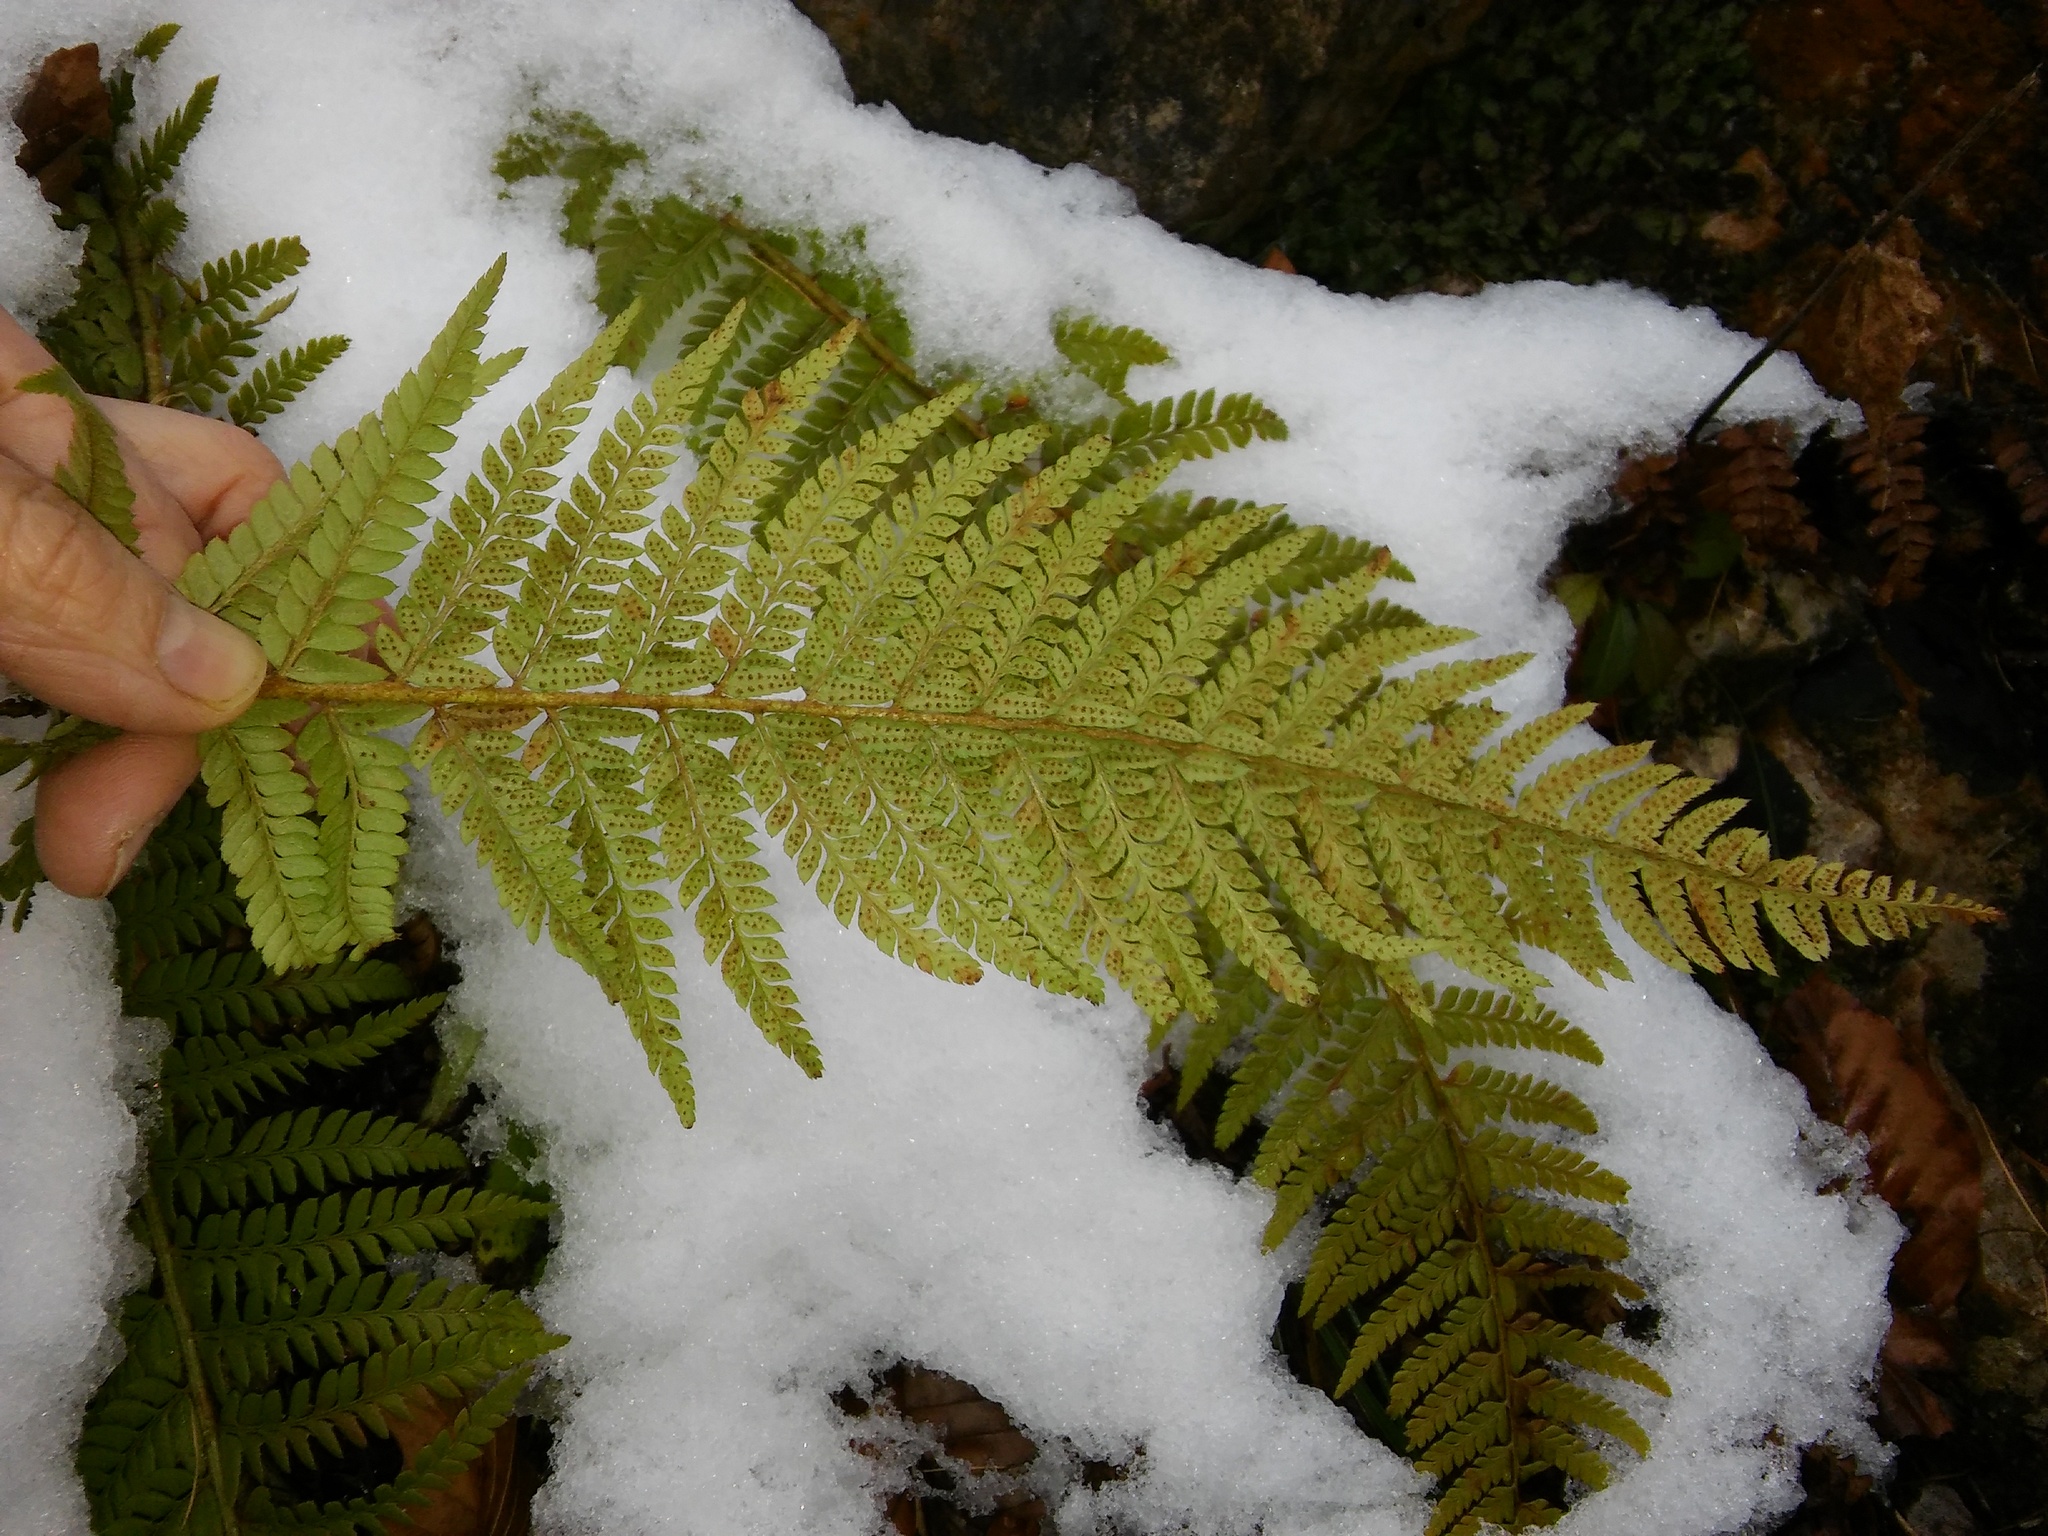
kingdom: Plantae
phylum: Tracheophyta
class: Polypodiopsida
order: Polypodiales
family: Dryopteridaceae
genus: Polystichum
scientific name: Polystichum aculeatum
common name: Hard shield-fern
